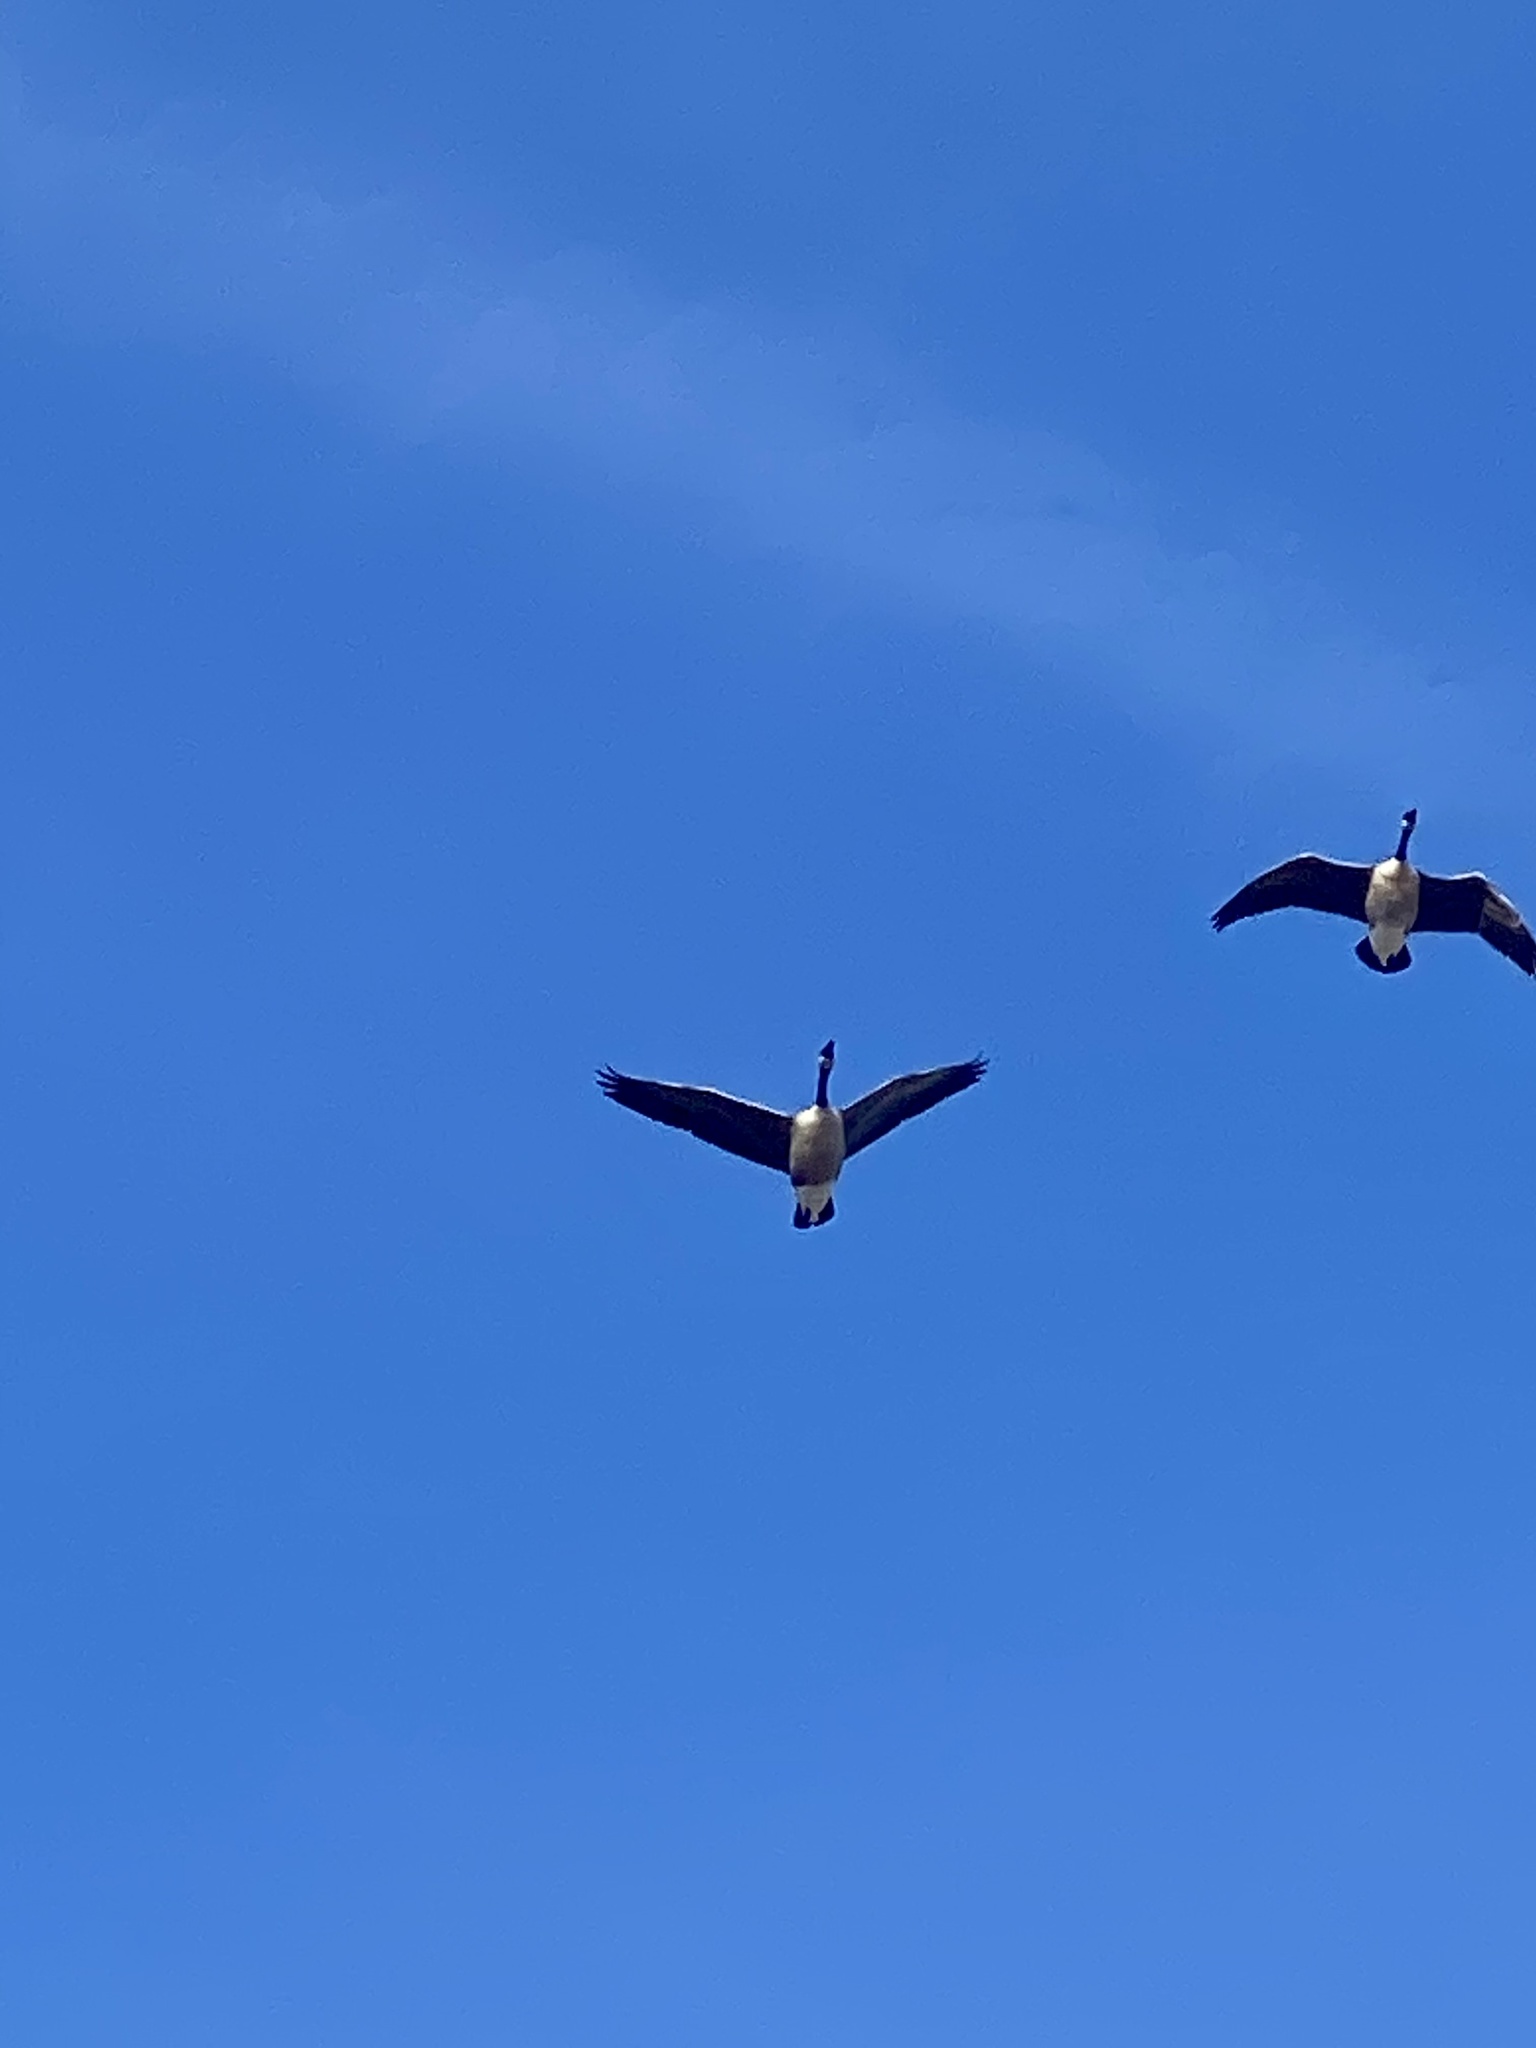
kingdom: Animalia
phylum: Chordata
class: Aves
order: Anseriformes
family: Anatidae
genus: Branta
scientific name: Branta canadensis
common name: Canada goose
